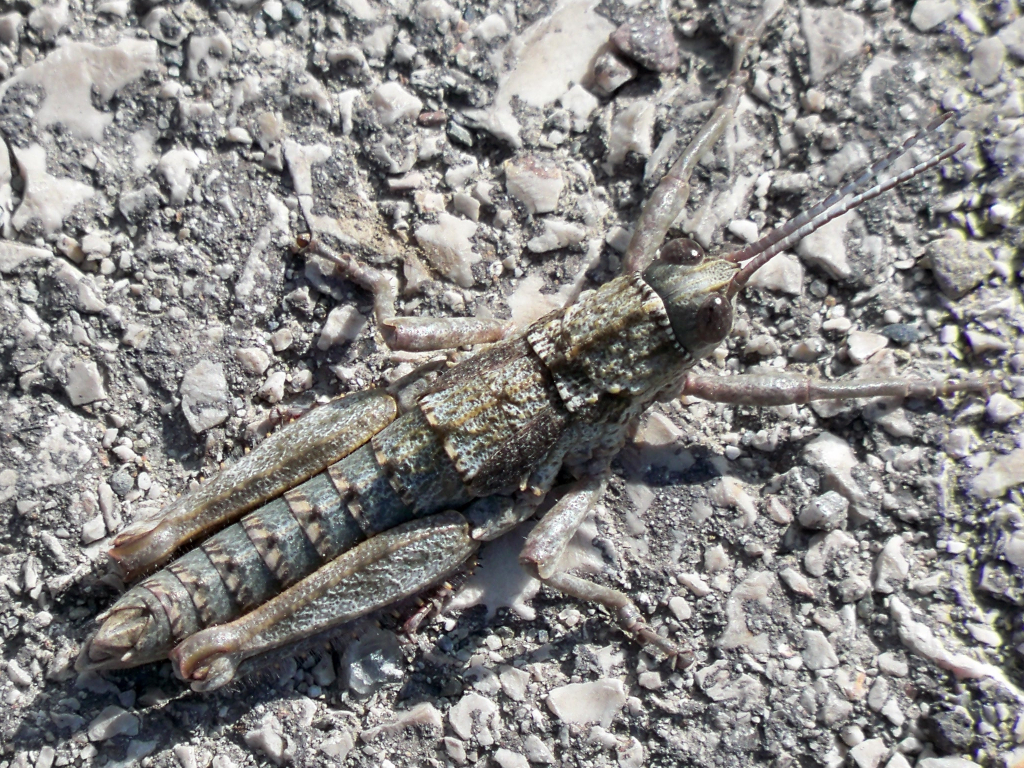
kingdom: Animalia
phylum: Arthropoda
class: Insecta
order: Orthoptera
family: Pamphagidae
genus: Acinipe
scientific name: Acinipe hesperica
